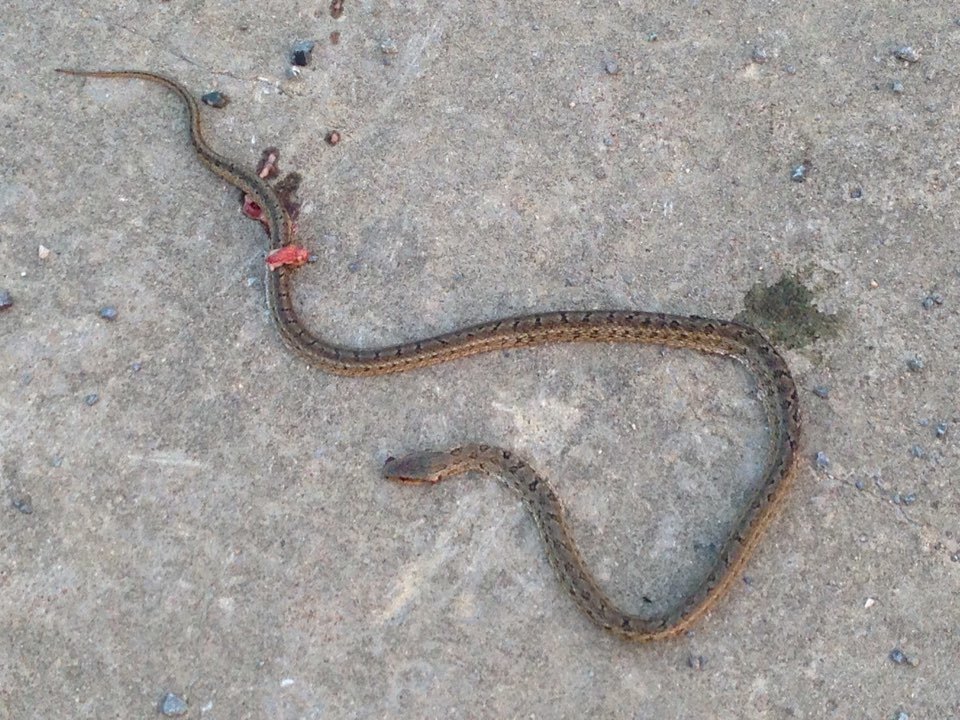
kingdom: Animalia
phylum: Chordata
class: Squamata
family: Colubridae
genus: Elaphe
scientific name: Elaphe dione
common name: Dione ratsnake
